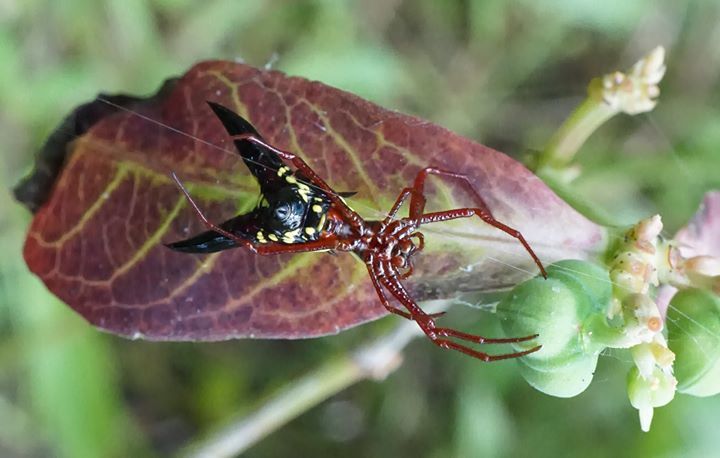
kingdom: Animalia
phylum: Arthropoda
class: Arachnida
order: Araneae
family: Araneidae
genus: Micrathena
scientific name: Micrathena sagittata
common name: Orb weavers
